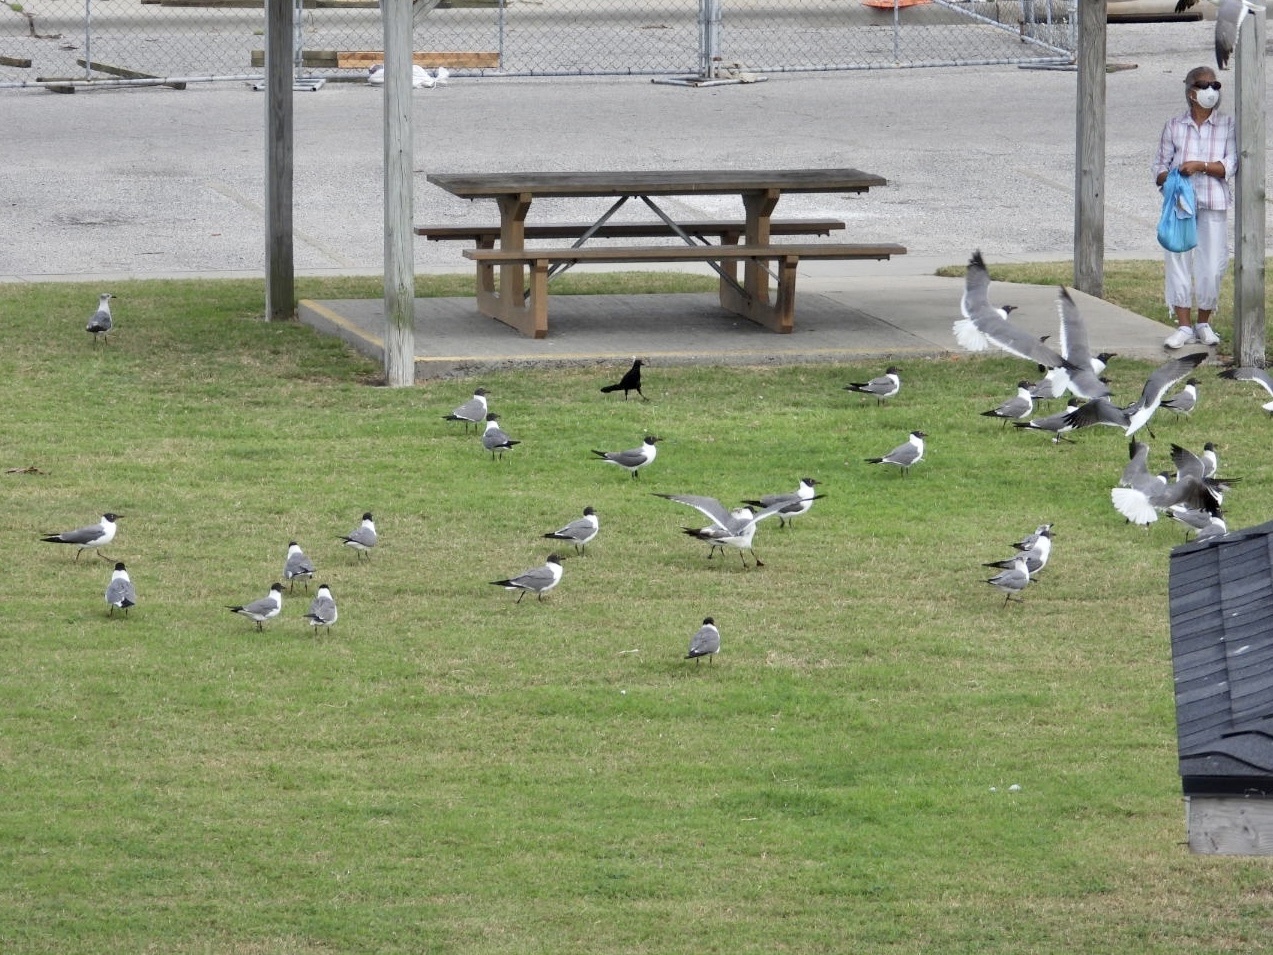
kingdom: Animalia
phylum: Chordata
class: Aves
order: Charadriiformes
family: Laridae
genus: Leucophaeus
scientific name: Leucophaeus atricilla
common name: Laughing gull
